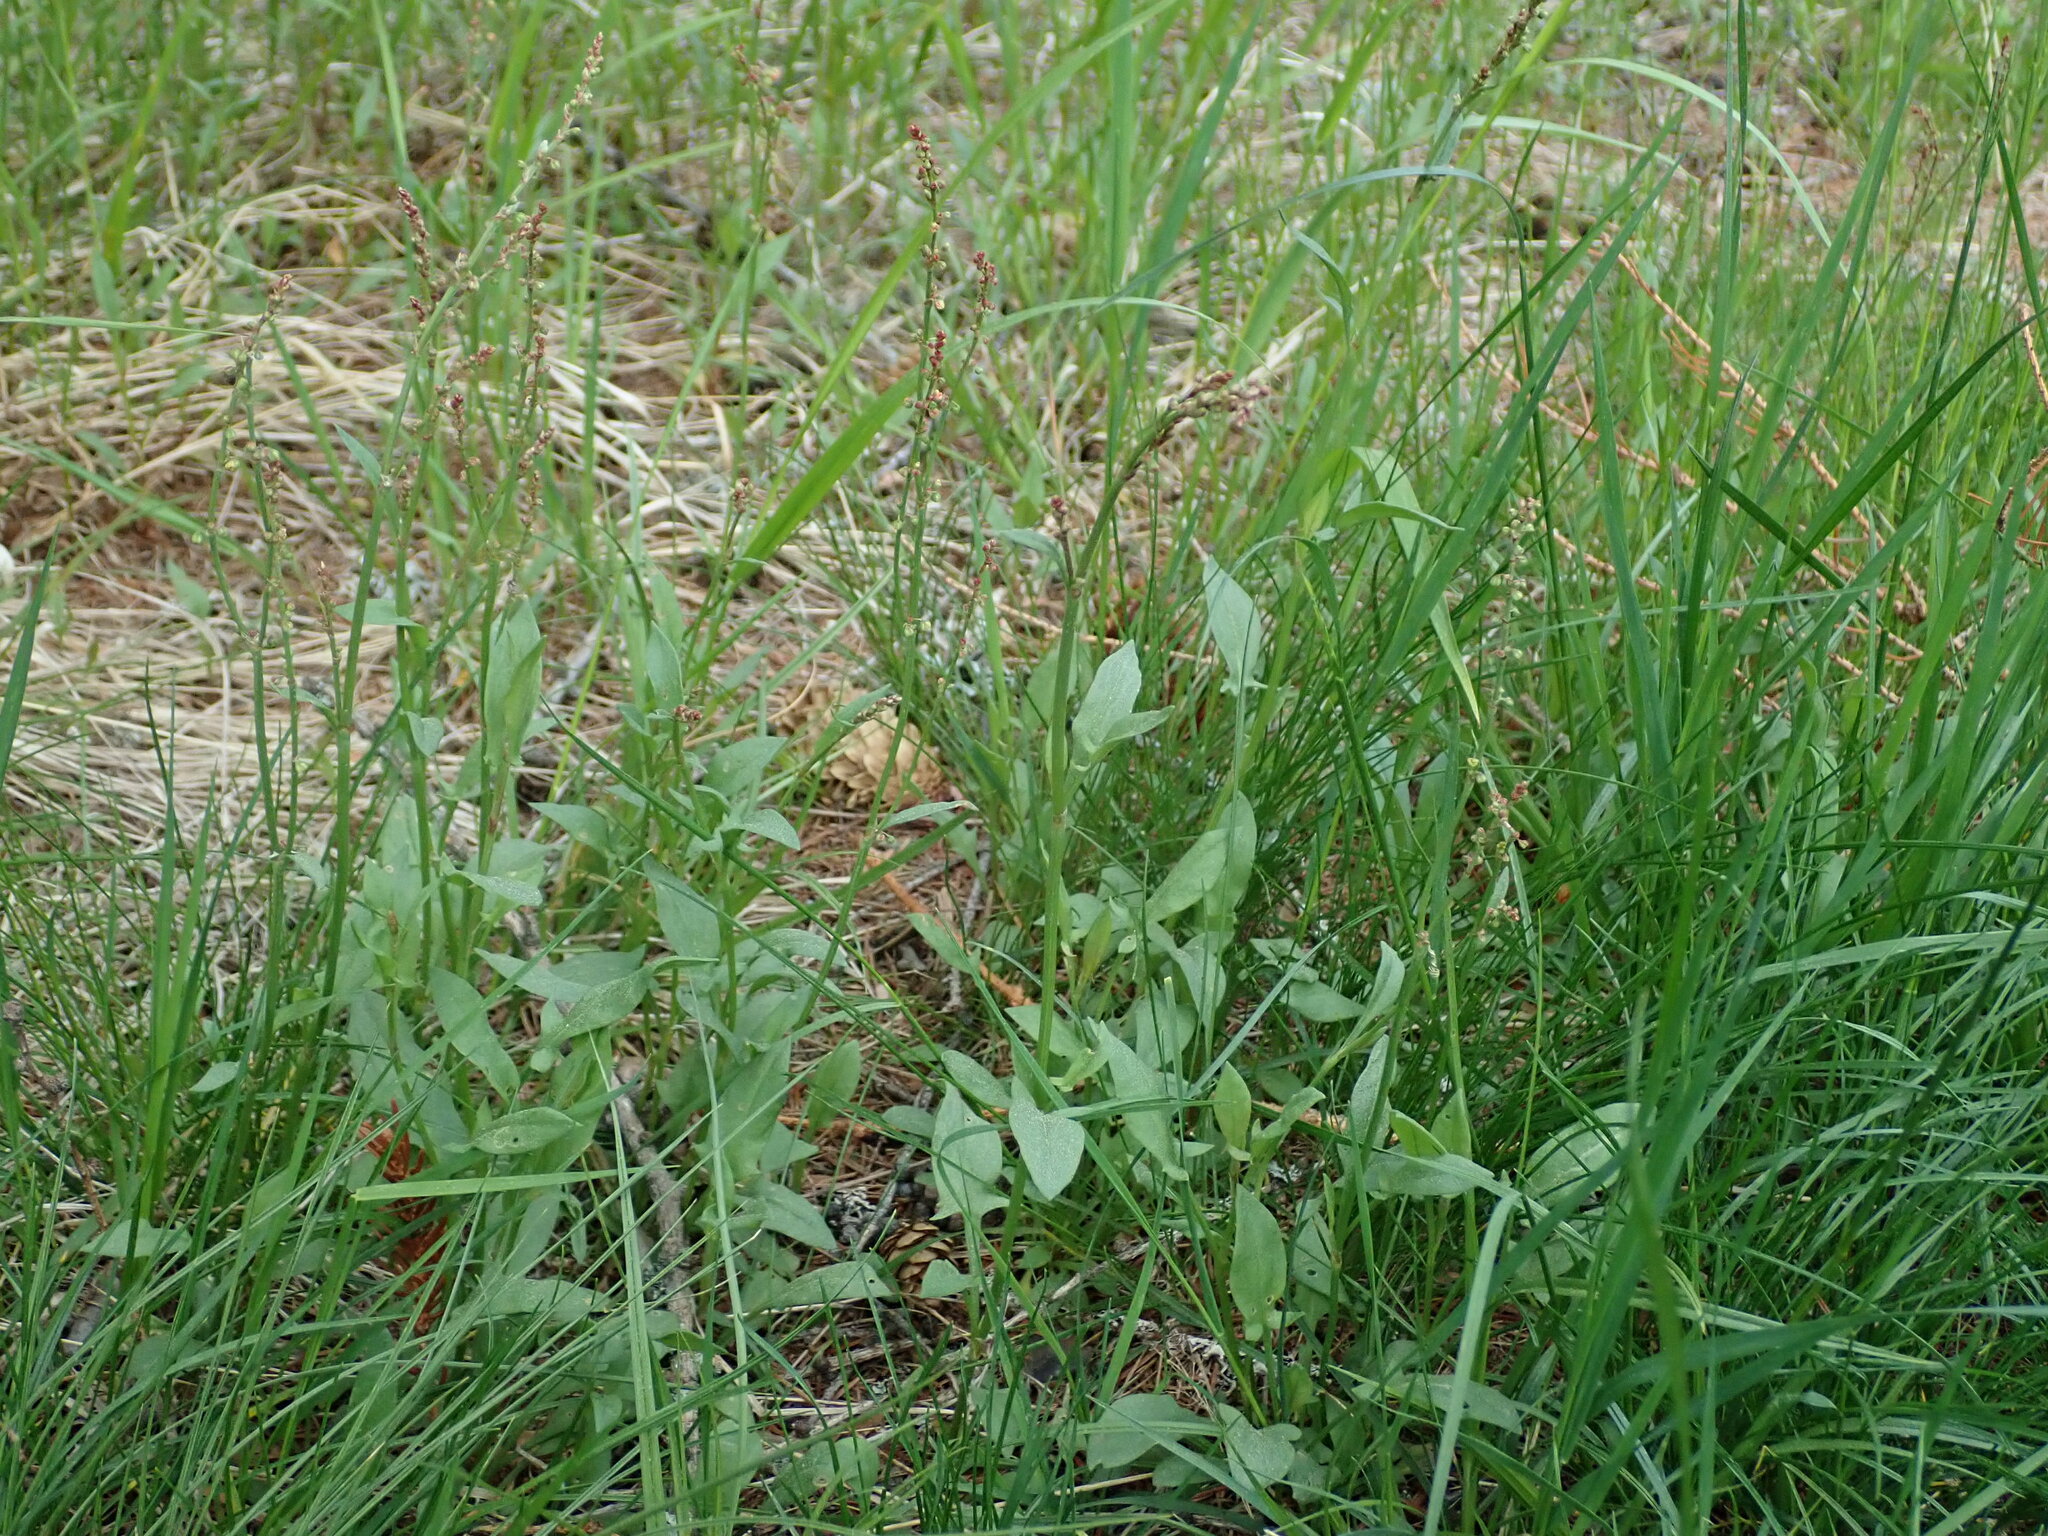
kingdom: Plantae
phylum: Tracheophyta
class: Magnoliopsida
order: Caryophyllales
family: Polygonaceae
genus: Rumex
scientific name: Rumex acetosella
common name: Common sheep sorrel
